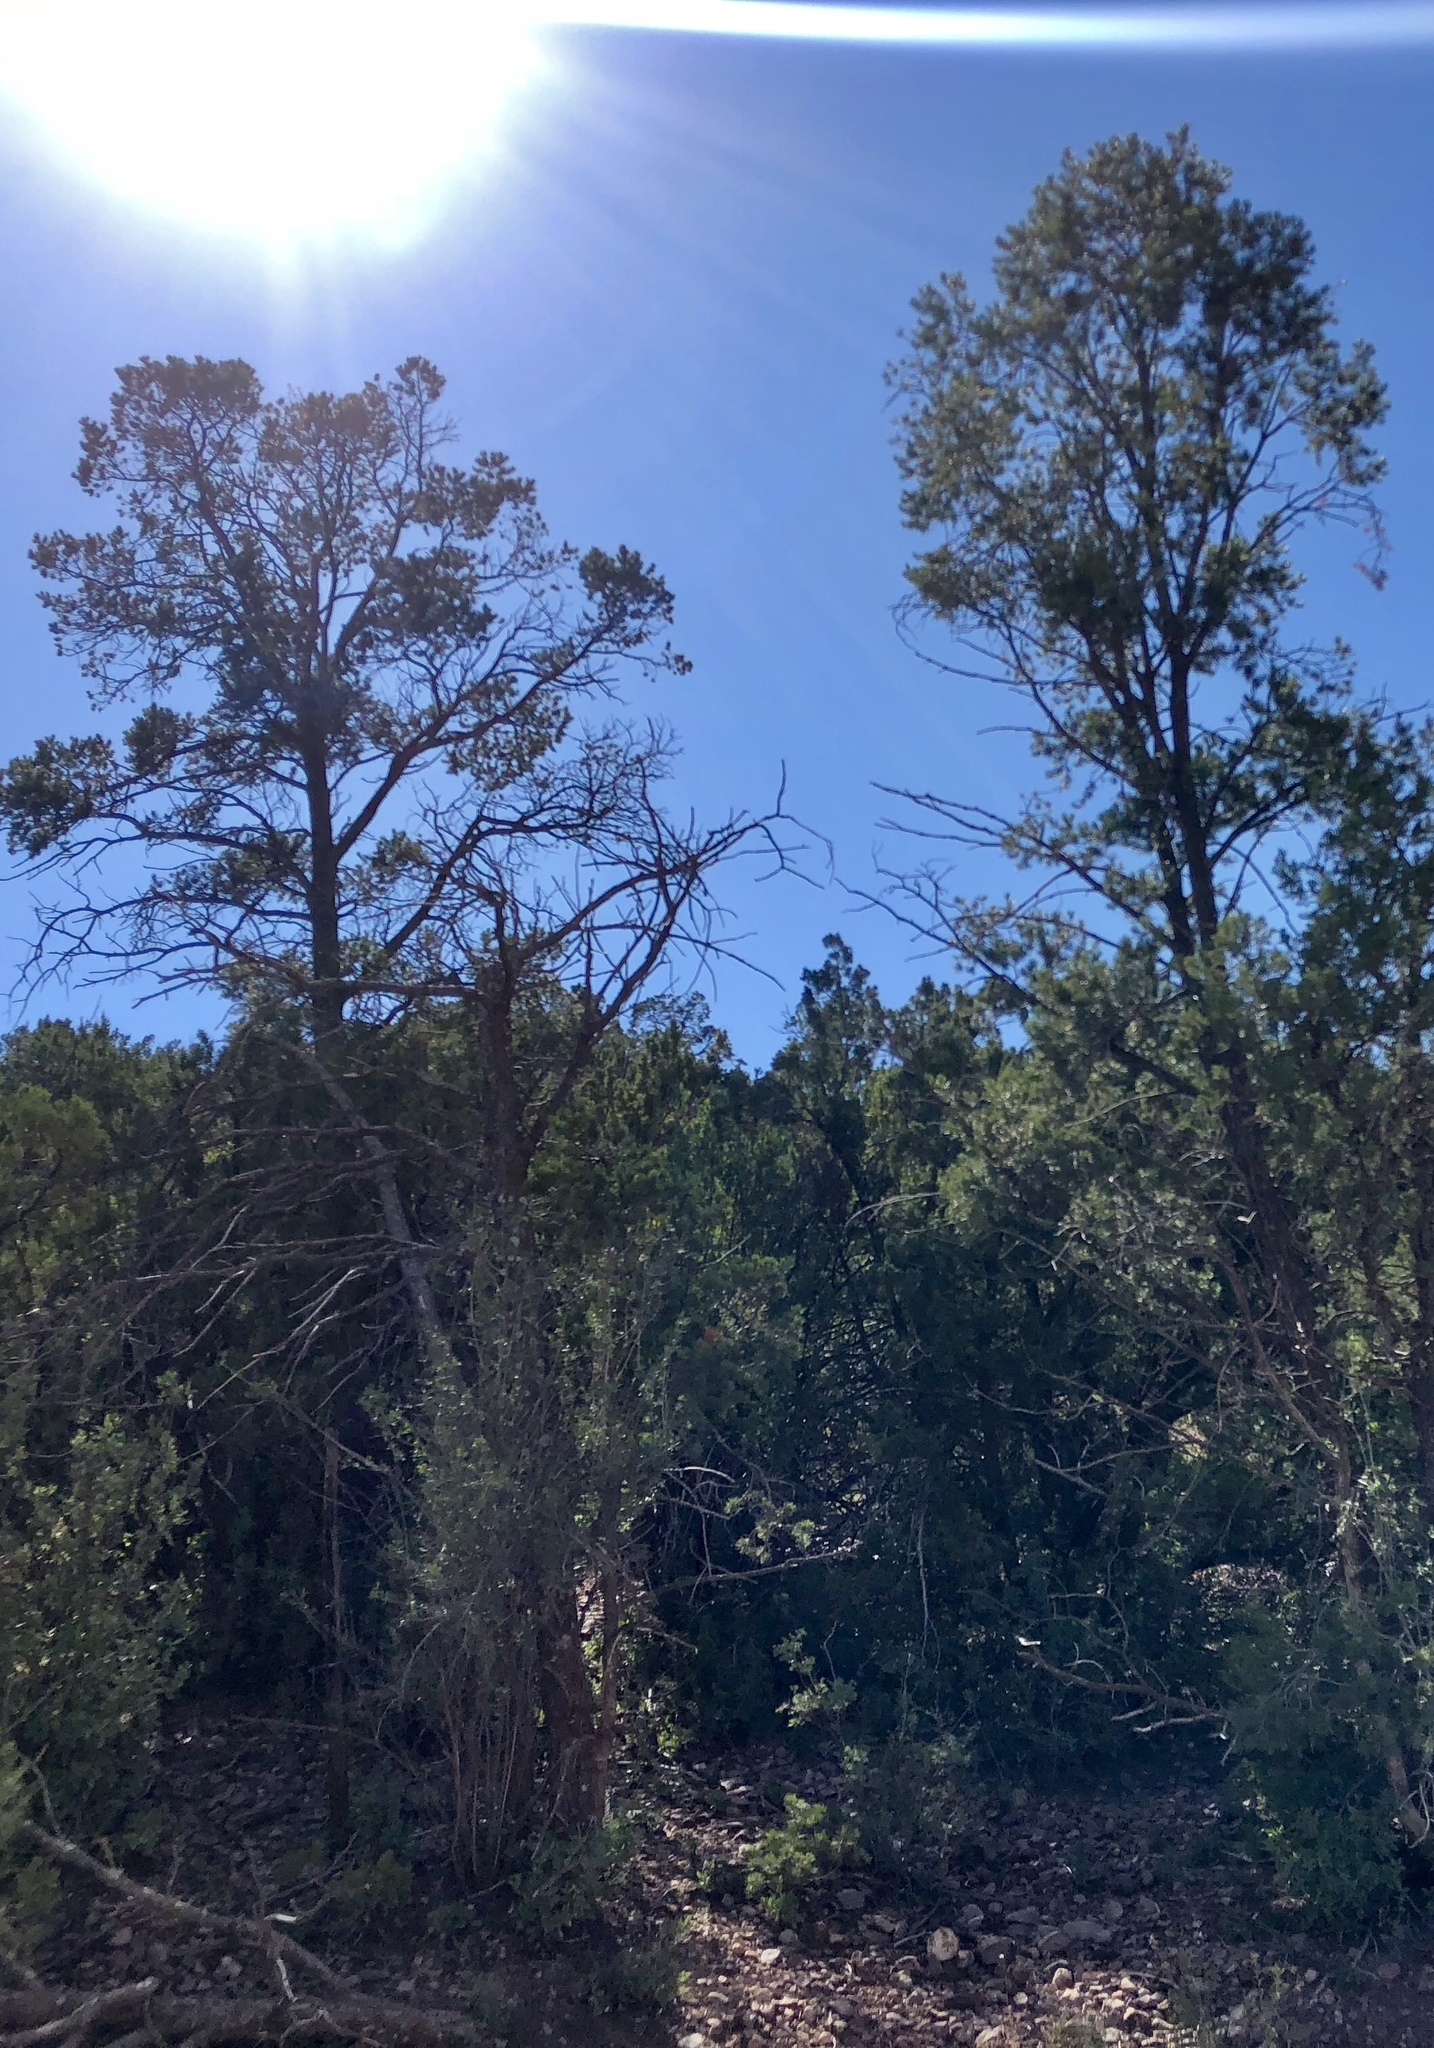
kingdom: Plantae
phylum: Tracheophyta
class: Pinopsida
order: Pinales
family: Pinaceae
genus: Pinus
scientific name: Pinus edulis
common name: Colorado pinyon
